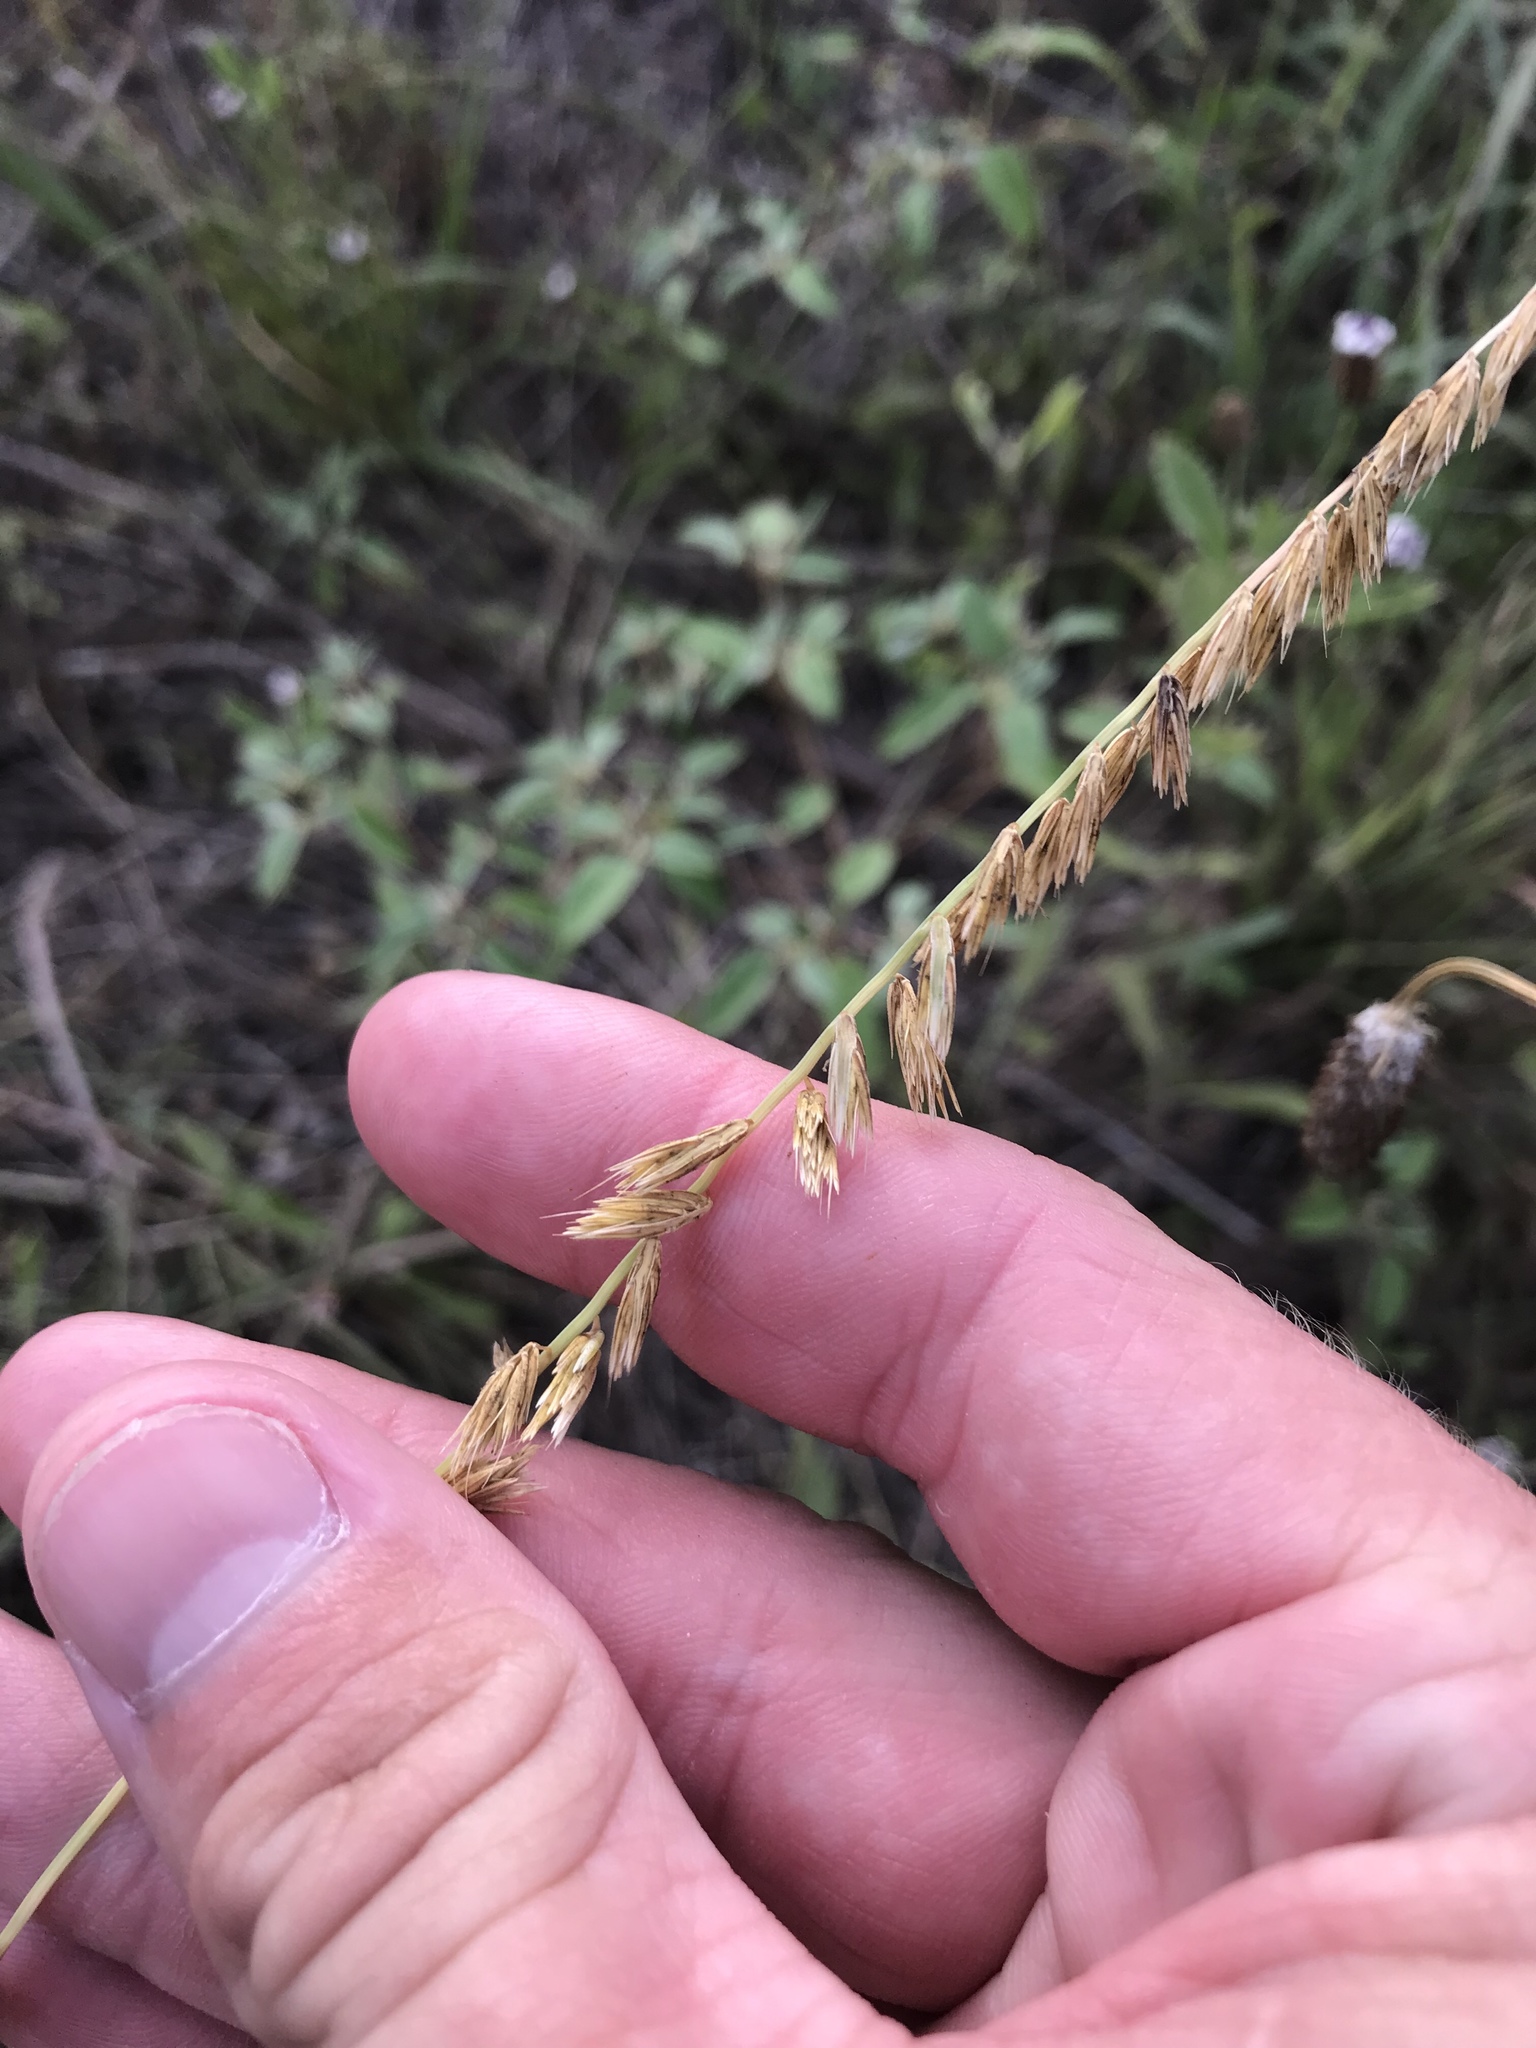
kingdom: Plantae
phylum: Tracheophyta
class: Liliopsida
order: Poales
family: Poaceae
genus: Bouteloua
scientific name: Bouteloua curtipendula
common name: Side-oats grama
